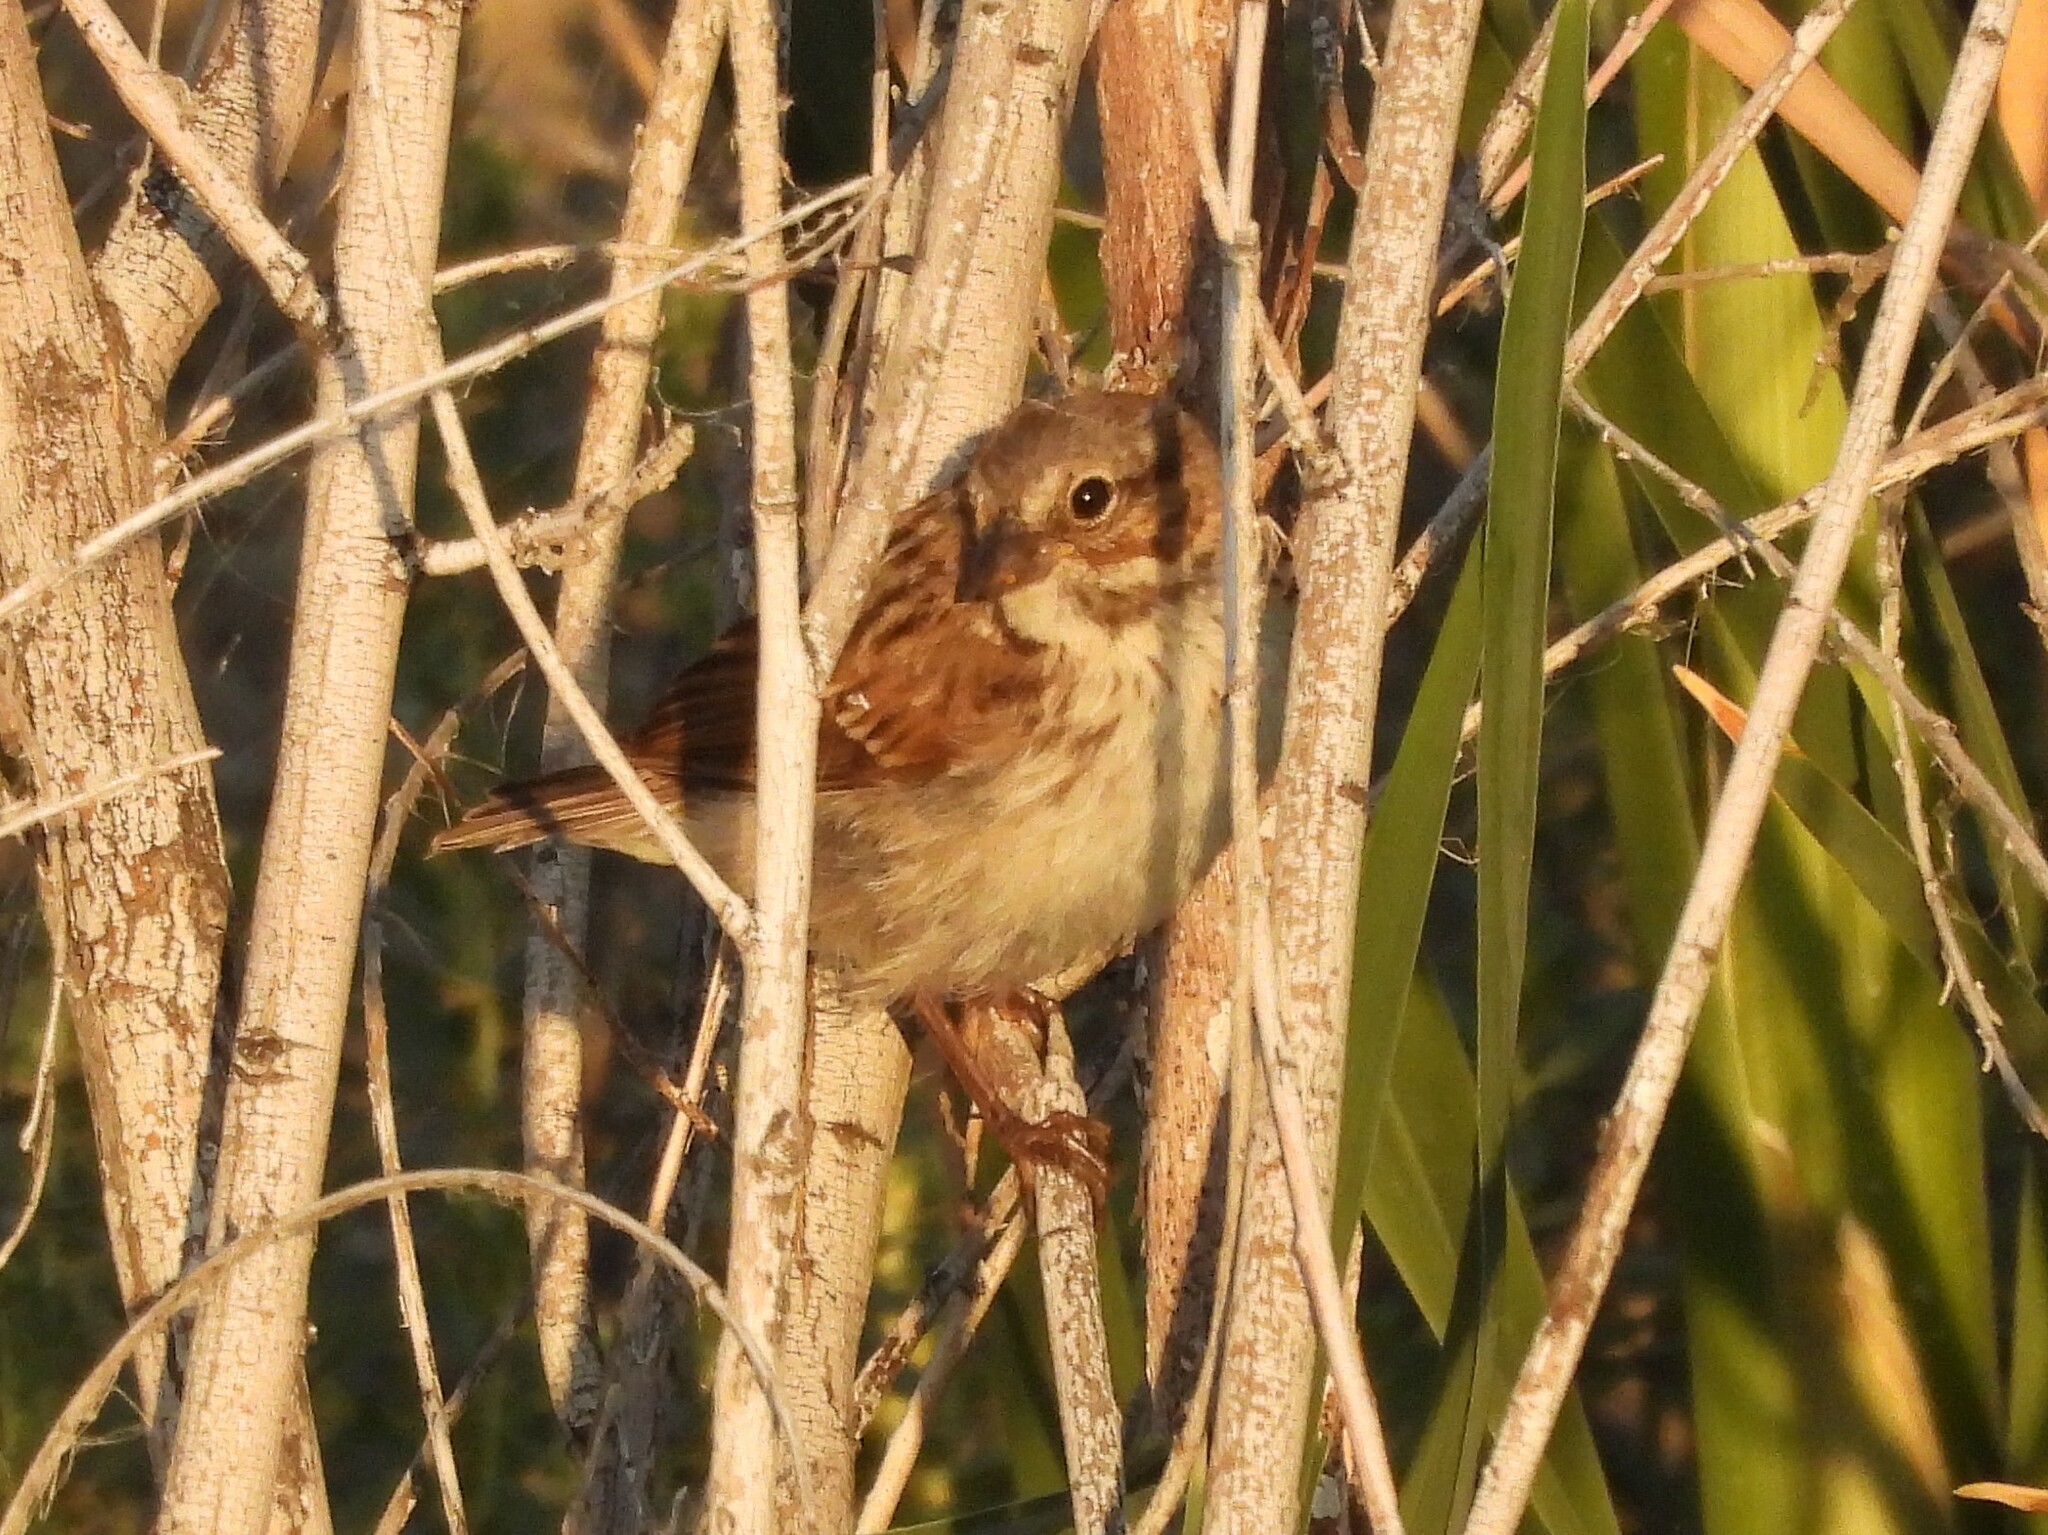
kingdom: Animalia
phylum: Chordata
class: Aves
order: Passeriformes
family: Passerellidae
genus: Melospiza
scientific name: Melospiza melodia
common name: Song sparrow
